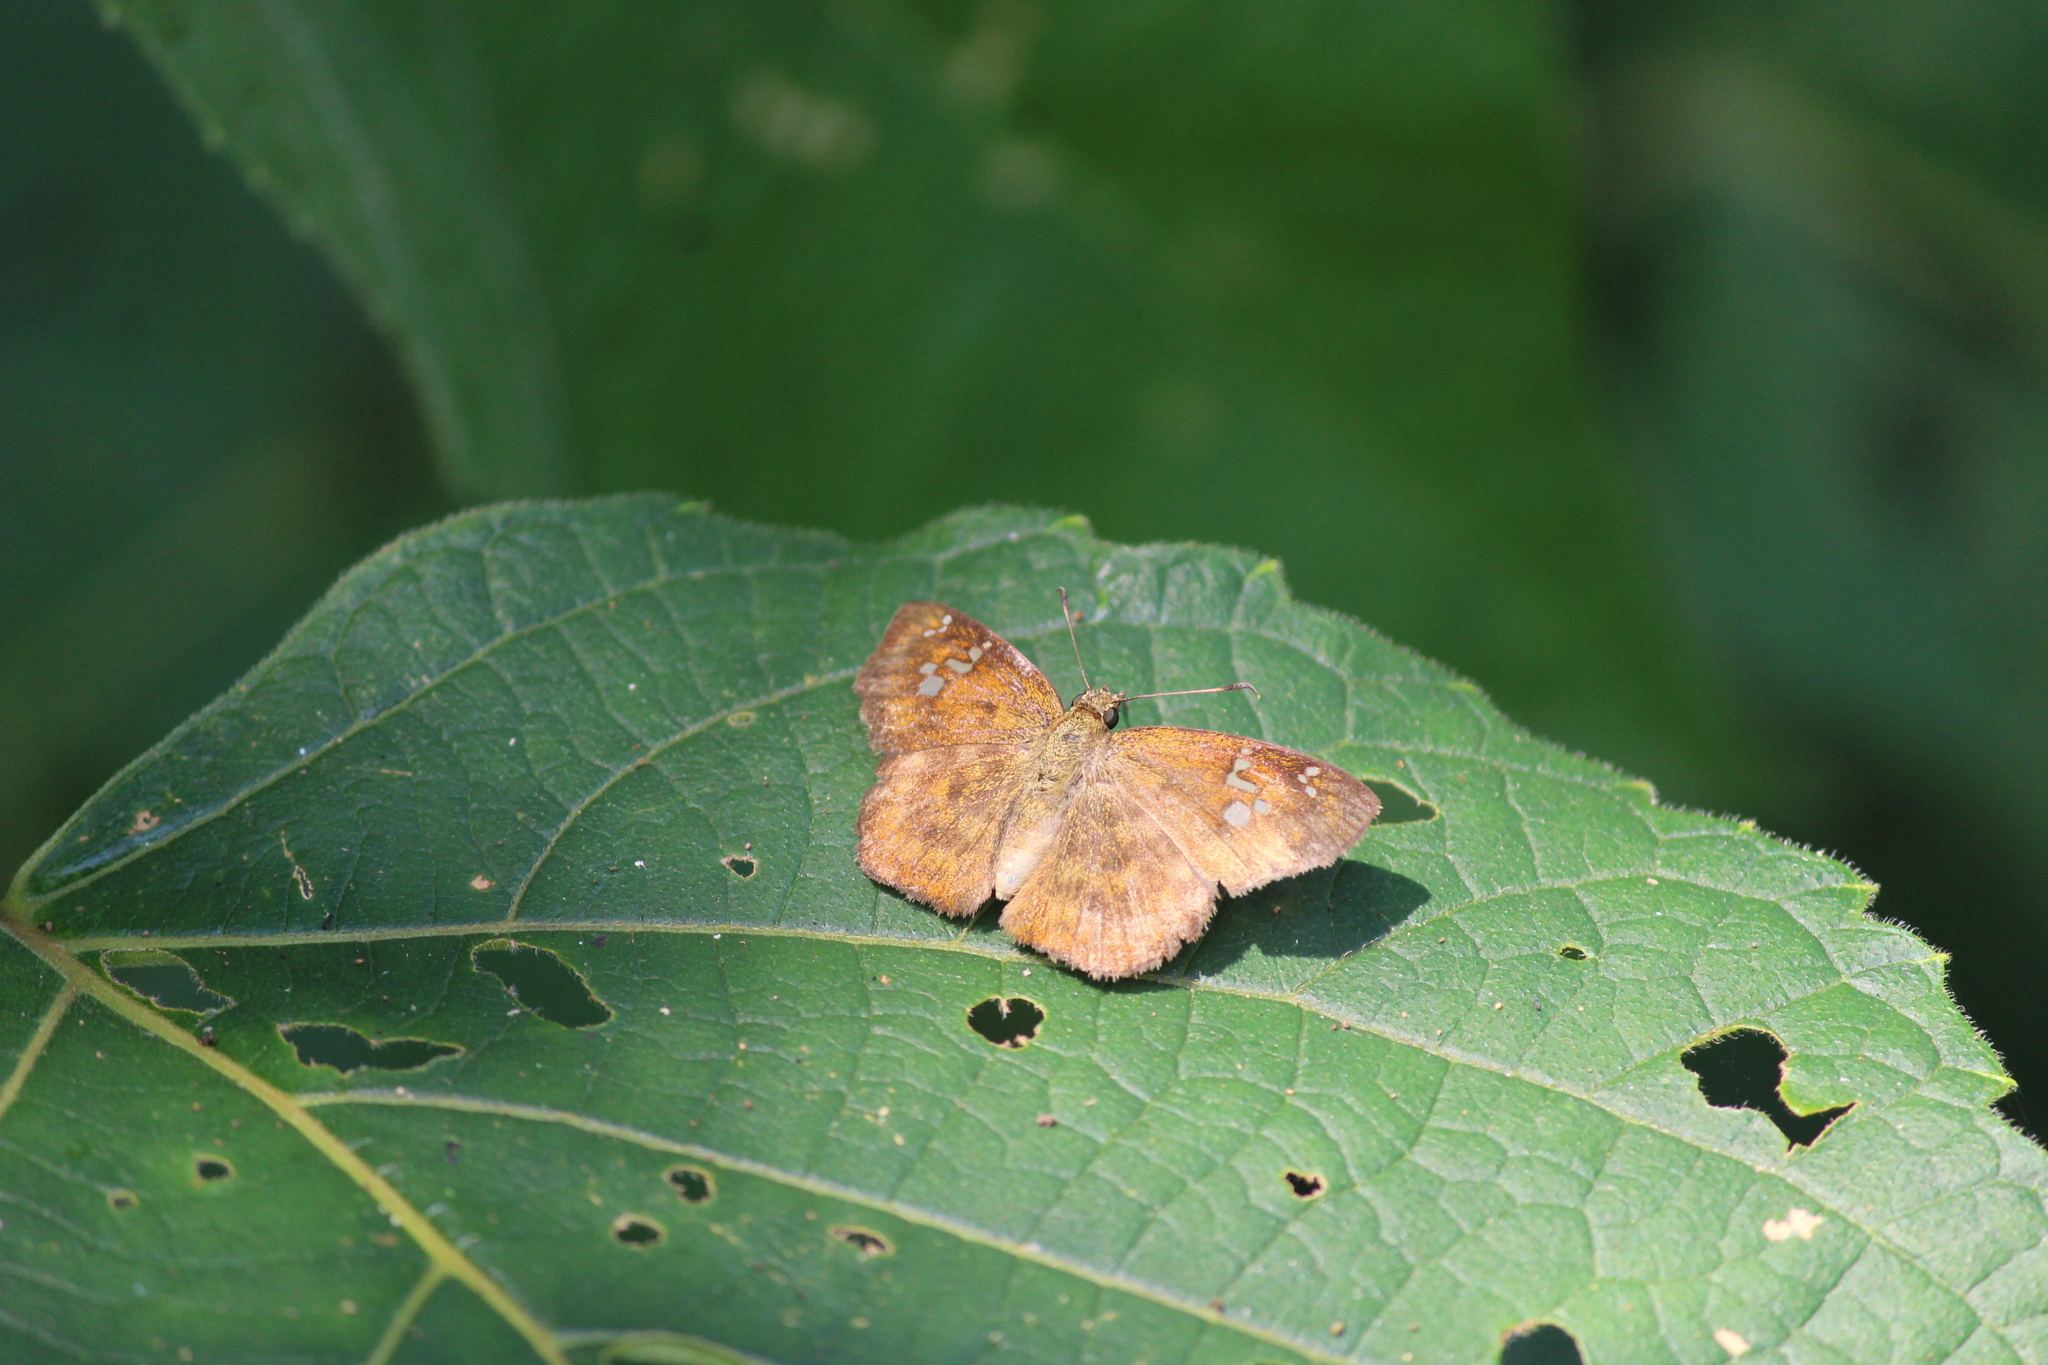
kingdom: Animalia
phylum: Arthropoda
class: Insecta
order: Lepidoptera
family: Hesperiidae
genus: Pseudocoladenia
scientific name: Pseudocoladenia dan
